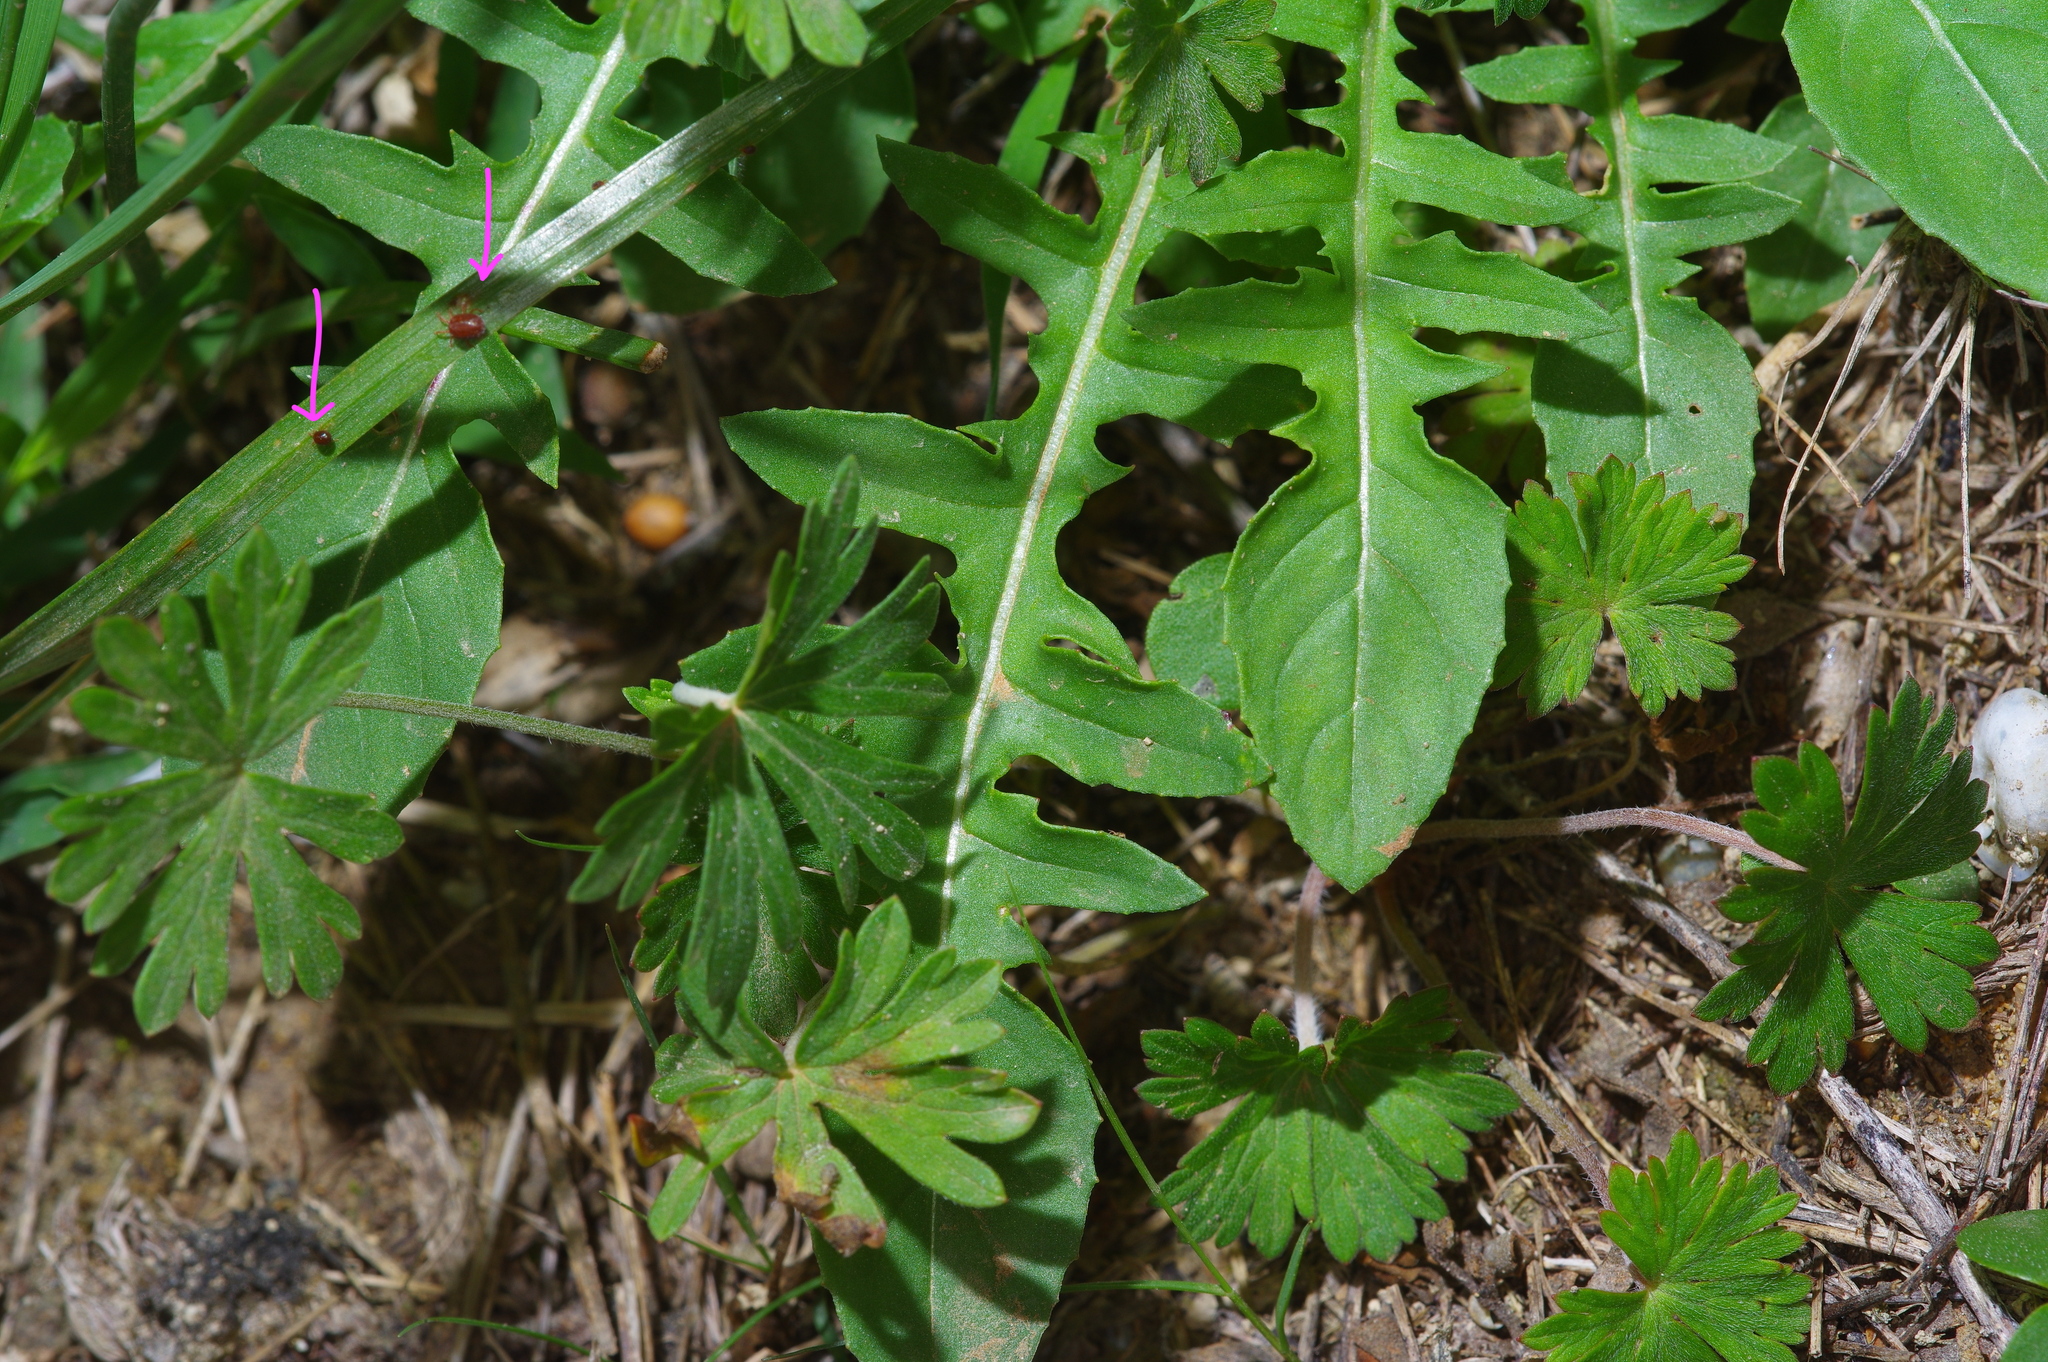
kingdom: Plantae
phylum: Tracheophyta
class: Magnoliopsida
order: Myrtales
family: Onagraceae
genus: Oenothera
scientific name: Oenothera triloba
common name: Sessile evening-primrose
